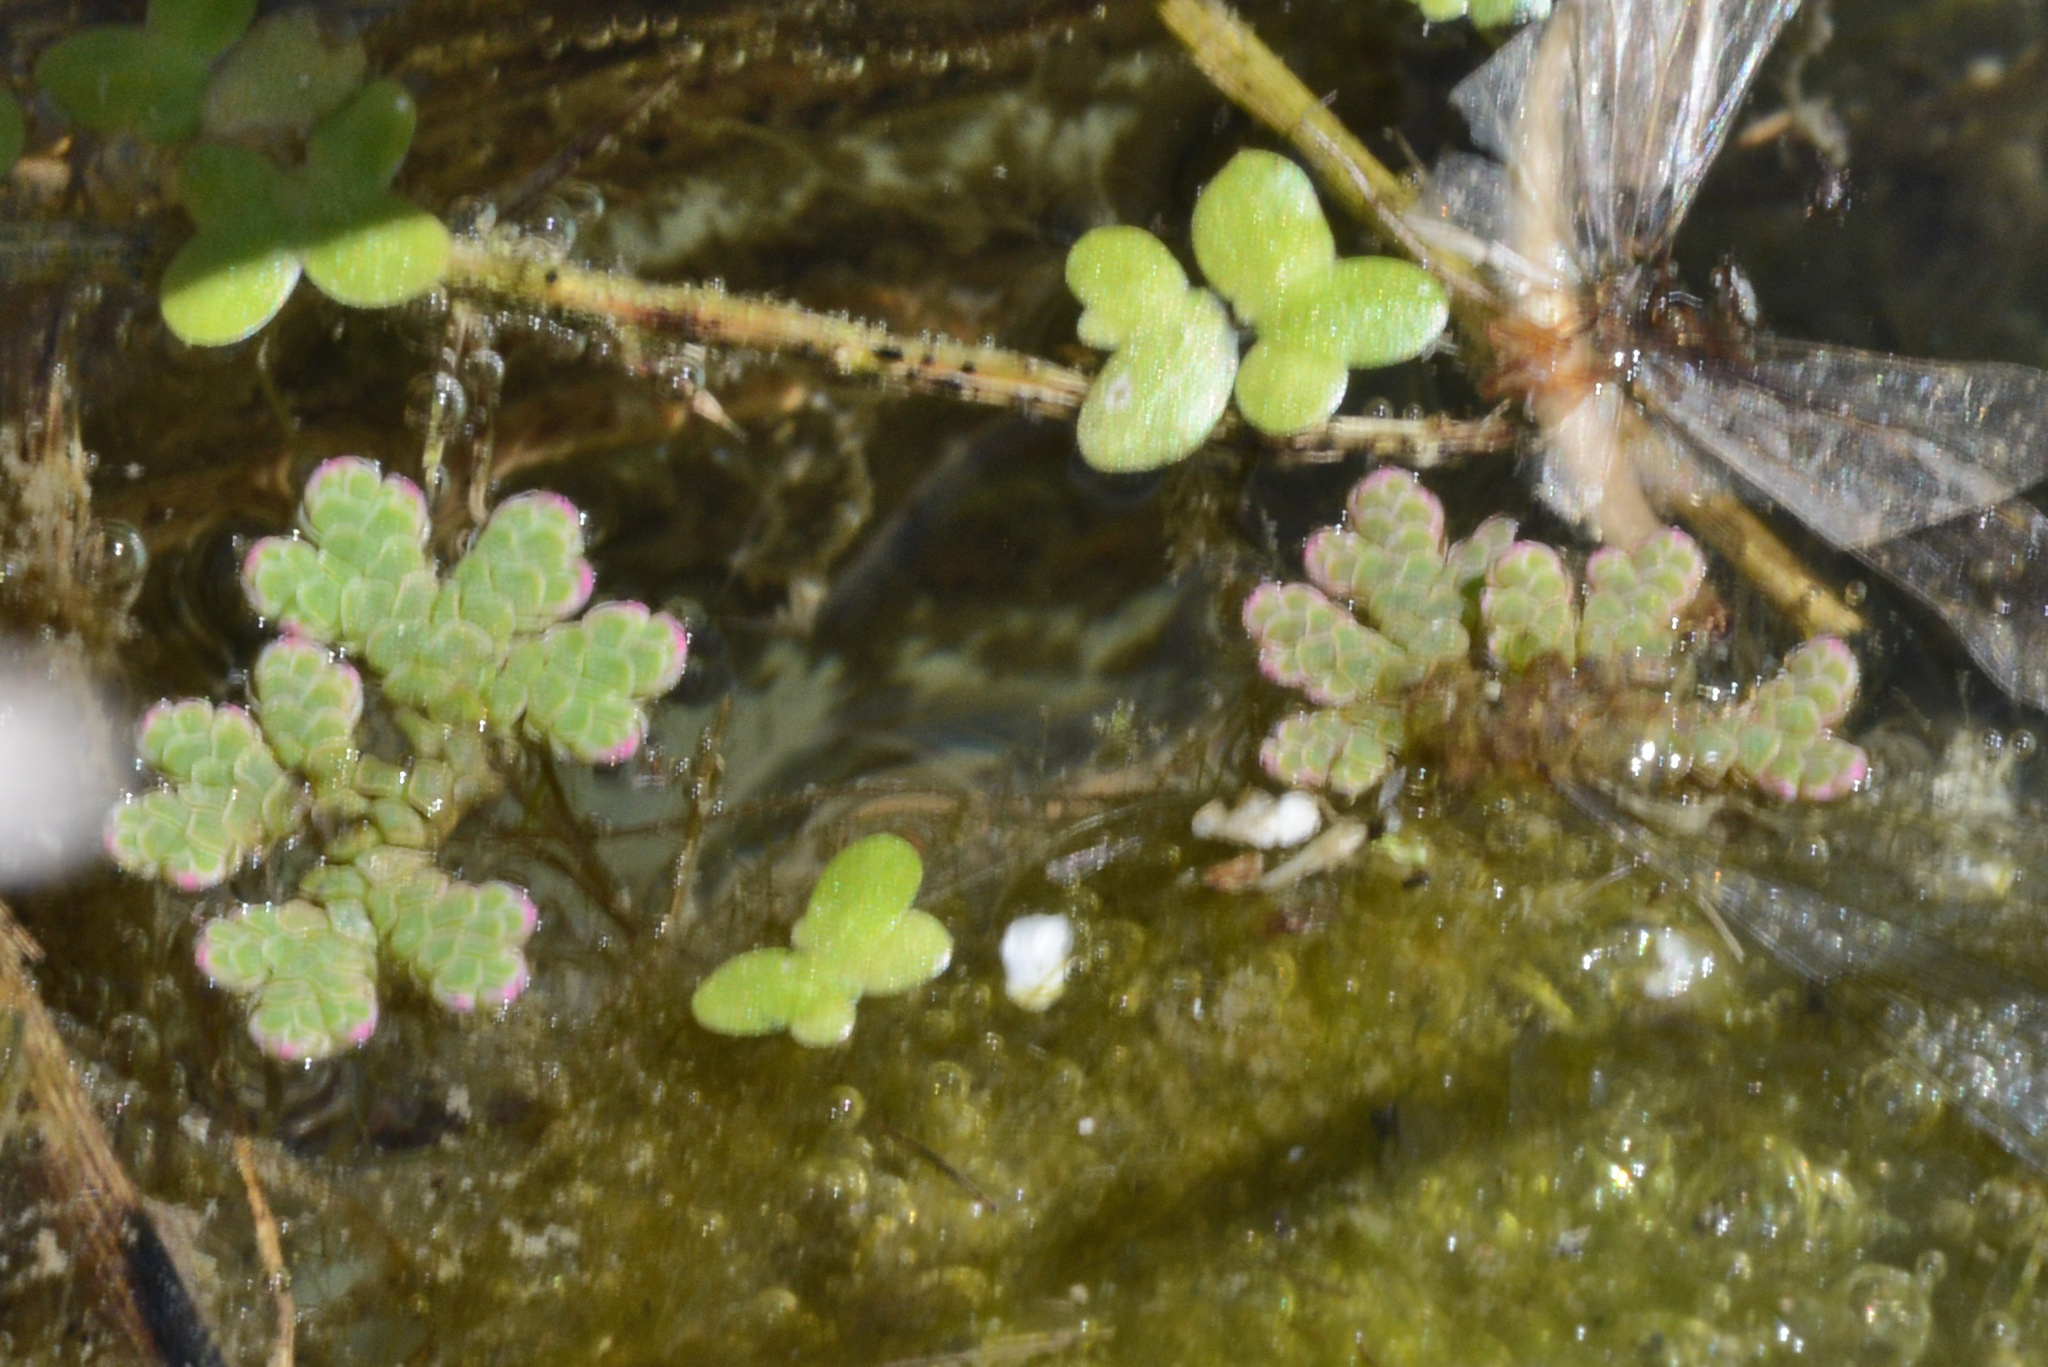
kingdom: Plantae
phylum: Tracheophyta
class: Polypodiopsida
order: Salviniales
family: Salviniaceae
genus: Azolla
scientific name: Azolla rubra
